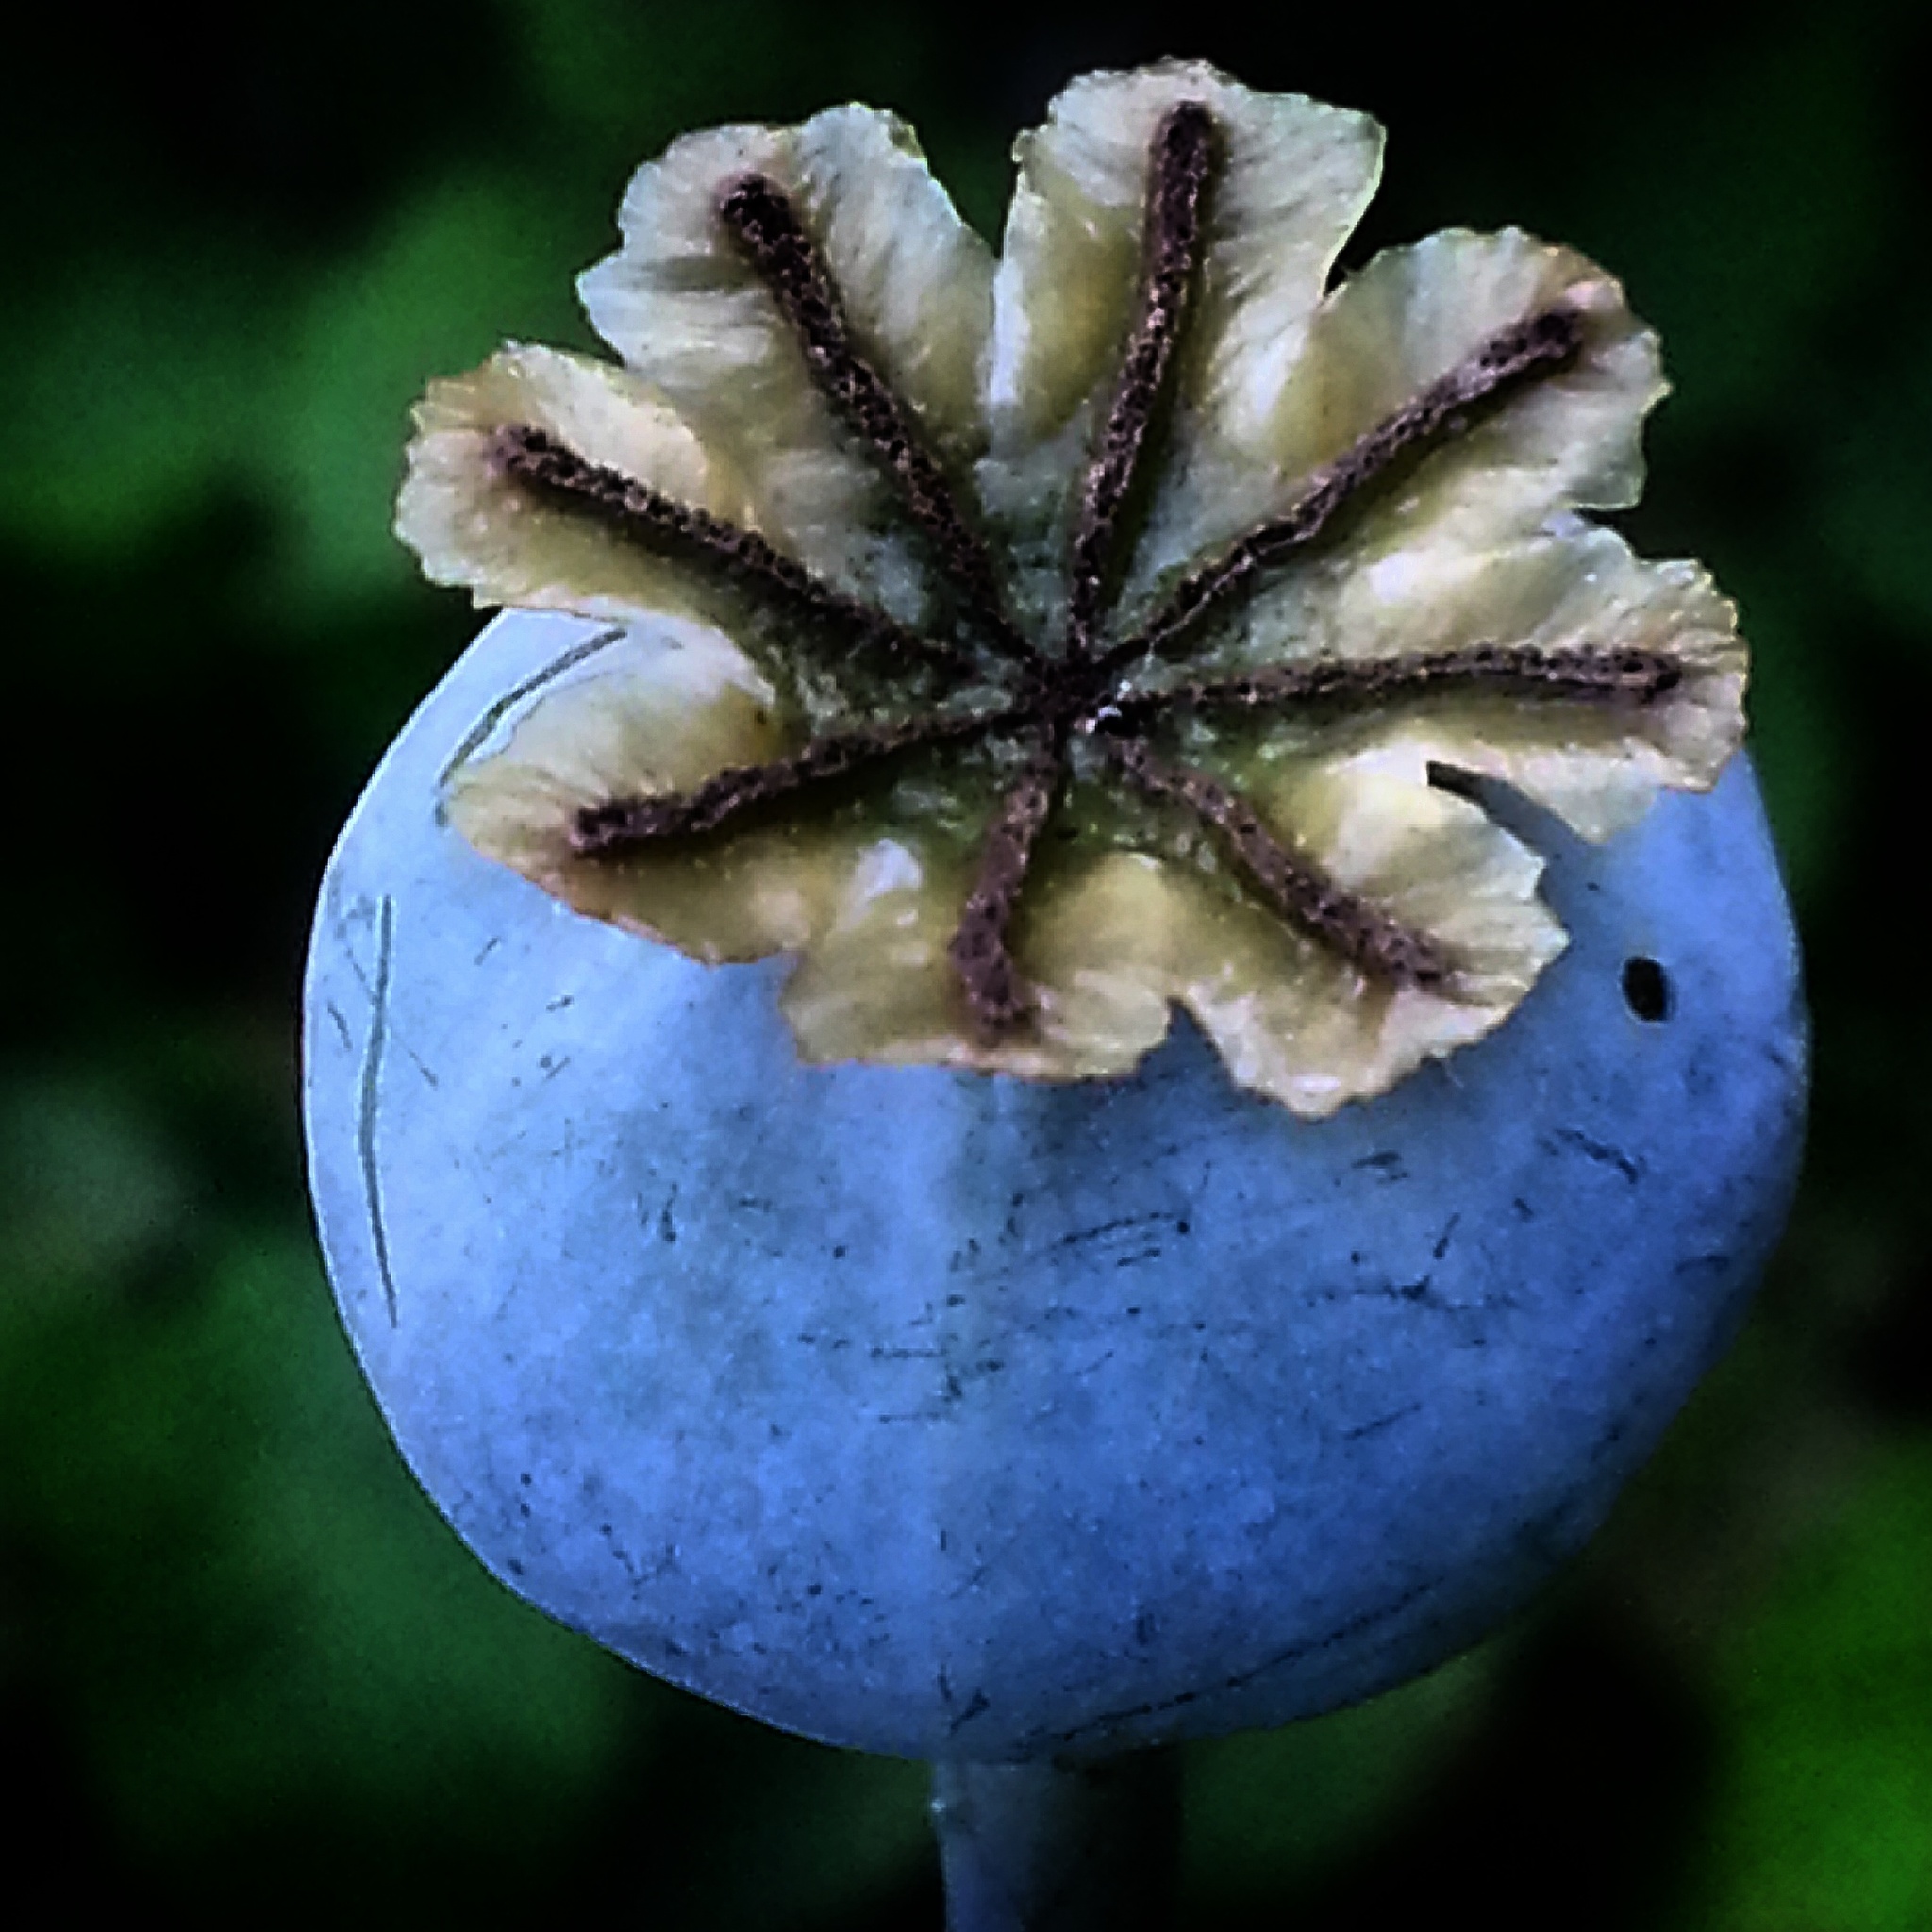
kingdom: Plantae
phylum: Tracheophyta
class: Magnoliopsida
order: Ranunculales
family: Papaveraceae
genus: Papaver
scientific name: Papaver somniferum
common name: Opium poppy
